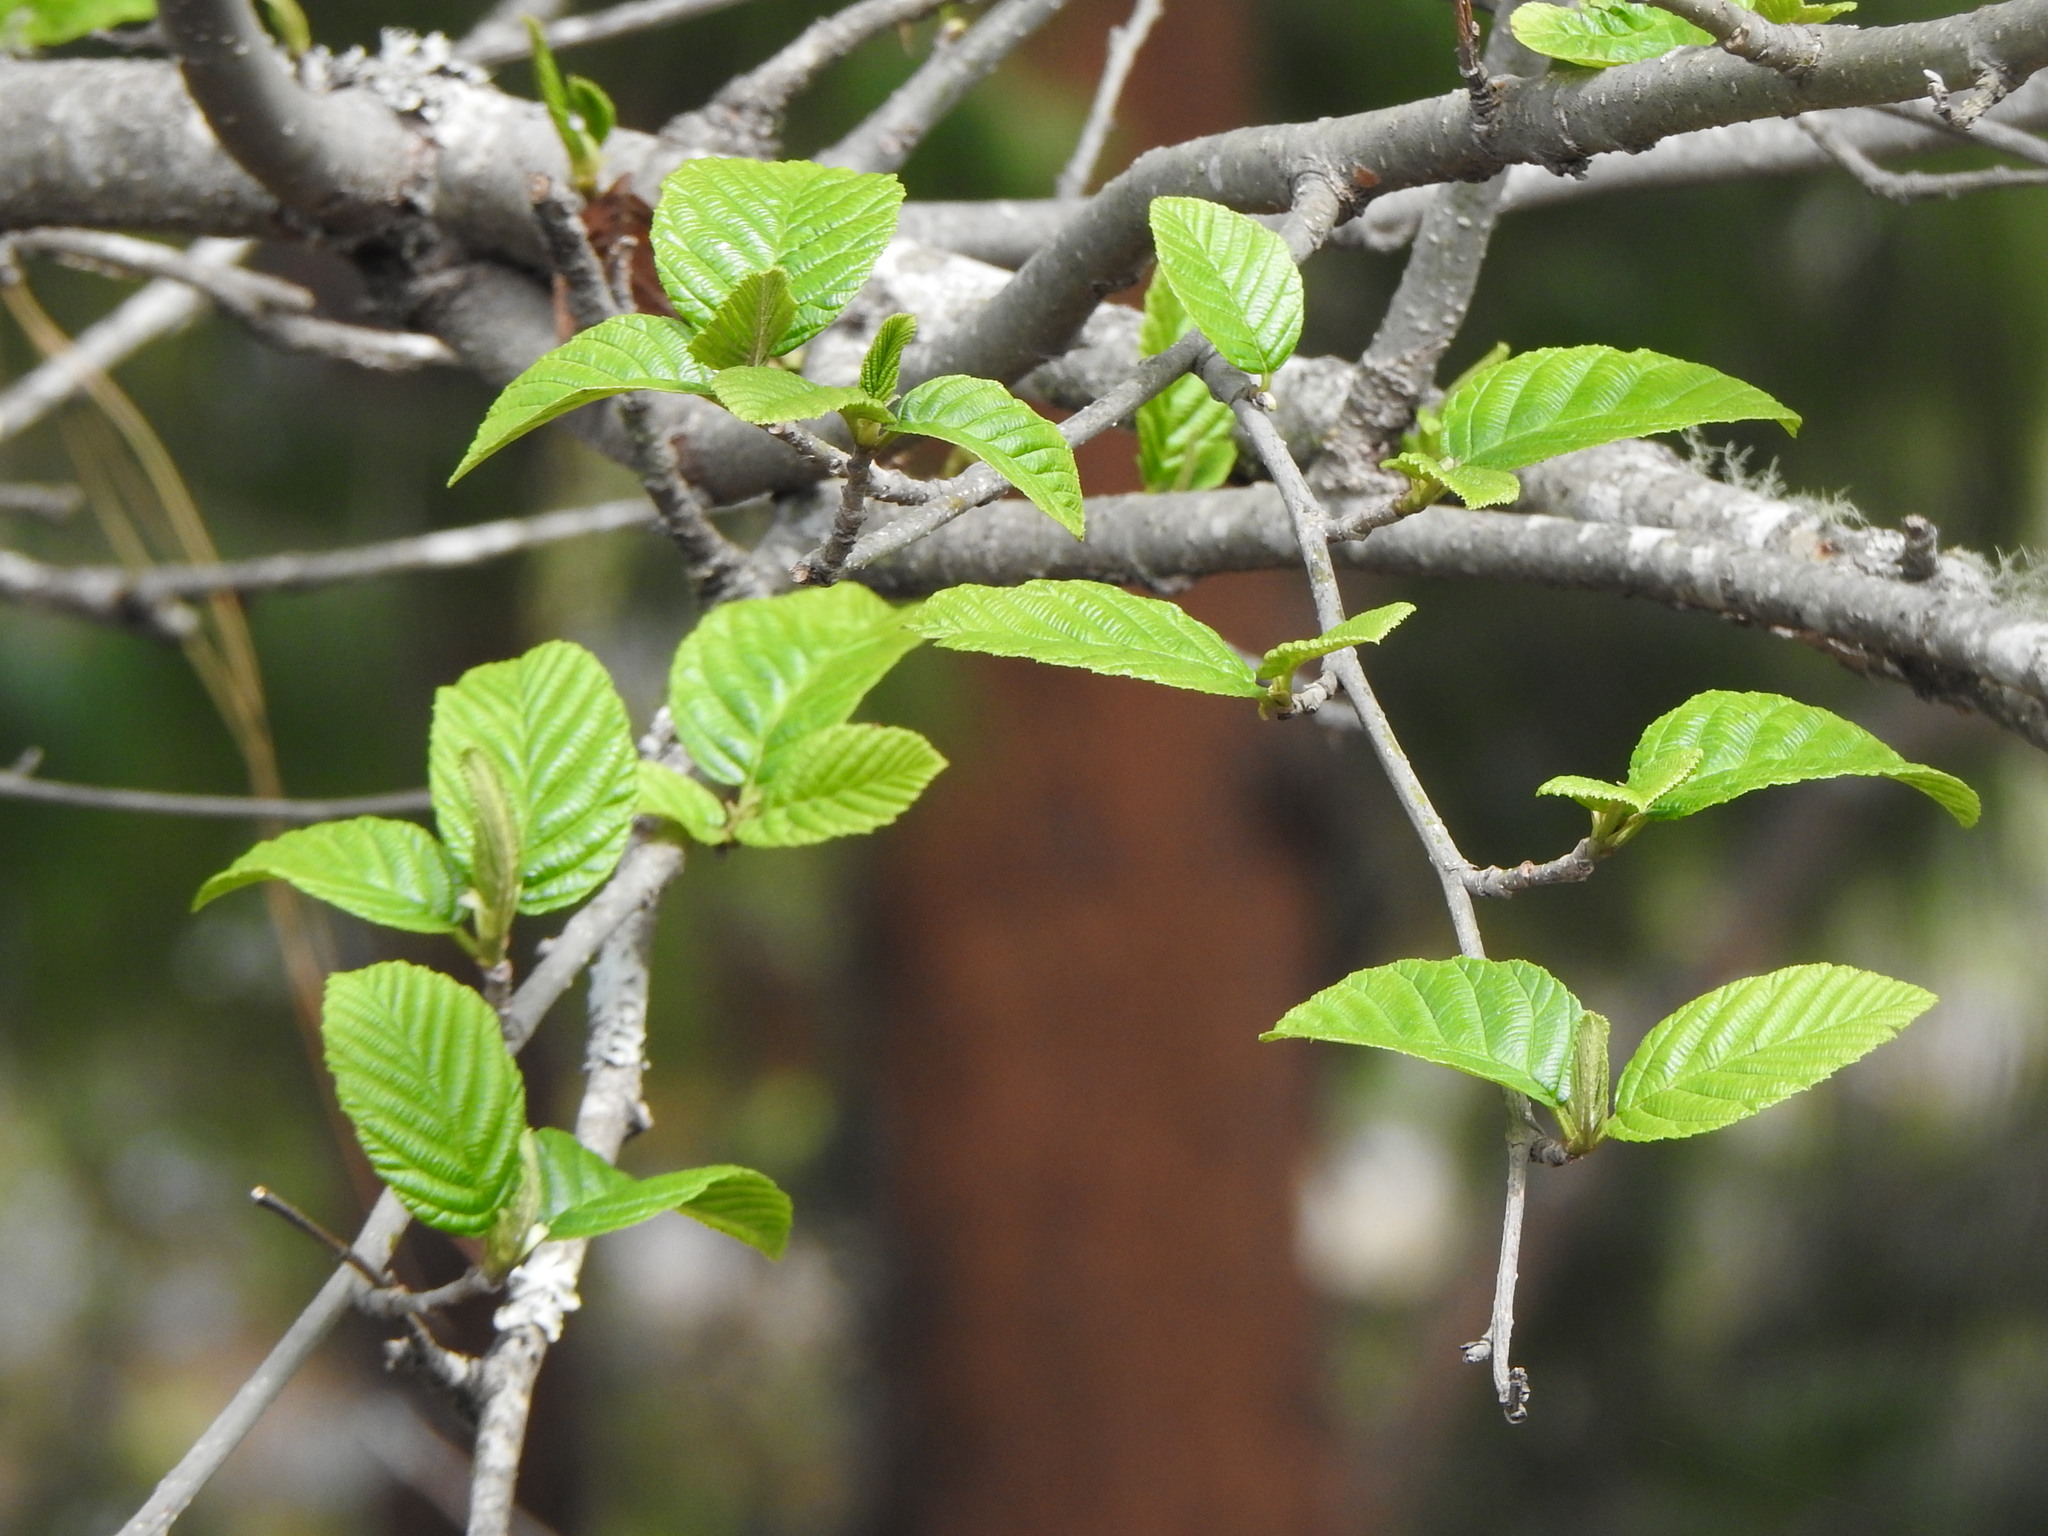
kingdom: Plantae
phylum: Tracheophyta
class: Magnoliopsida
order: Fagales
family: Betulaceae
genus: Alnus
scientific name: Alnus acuminata
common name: Alder
